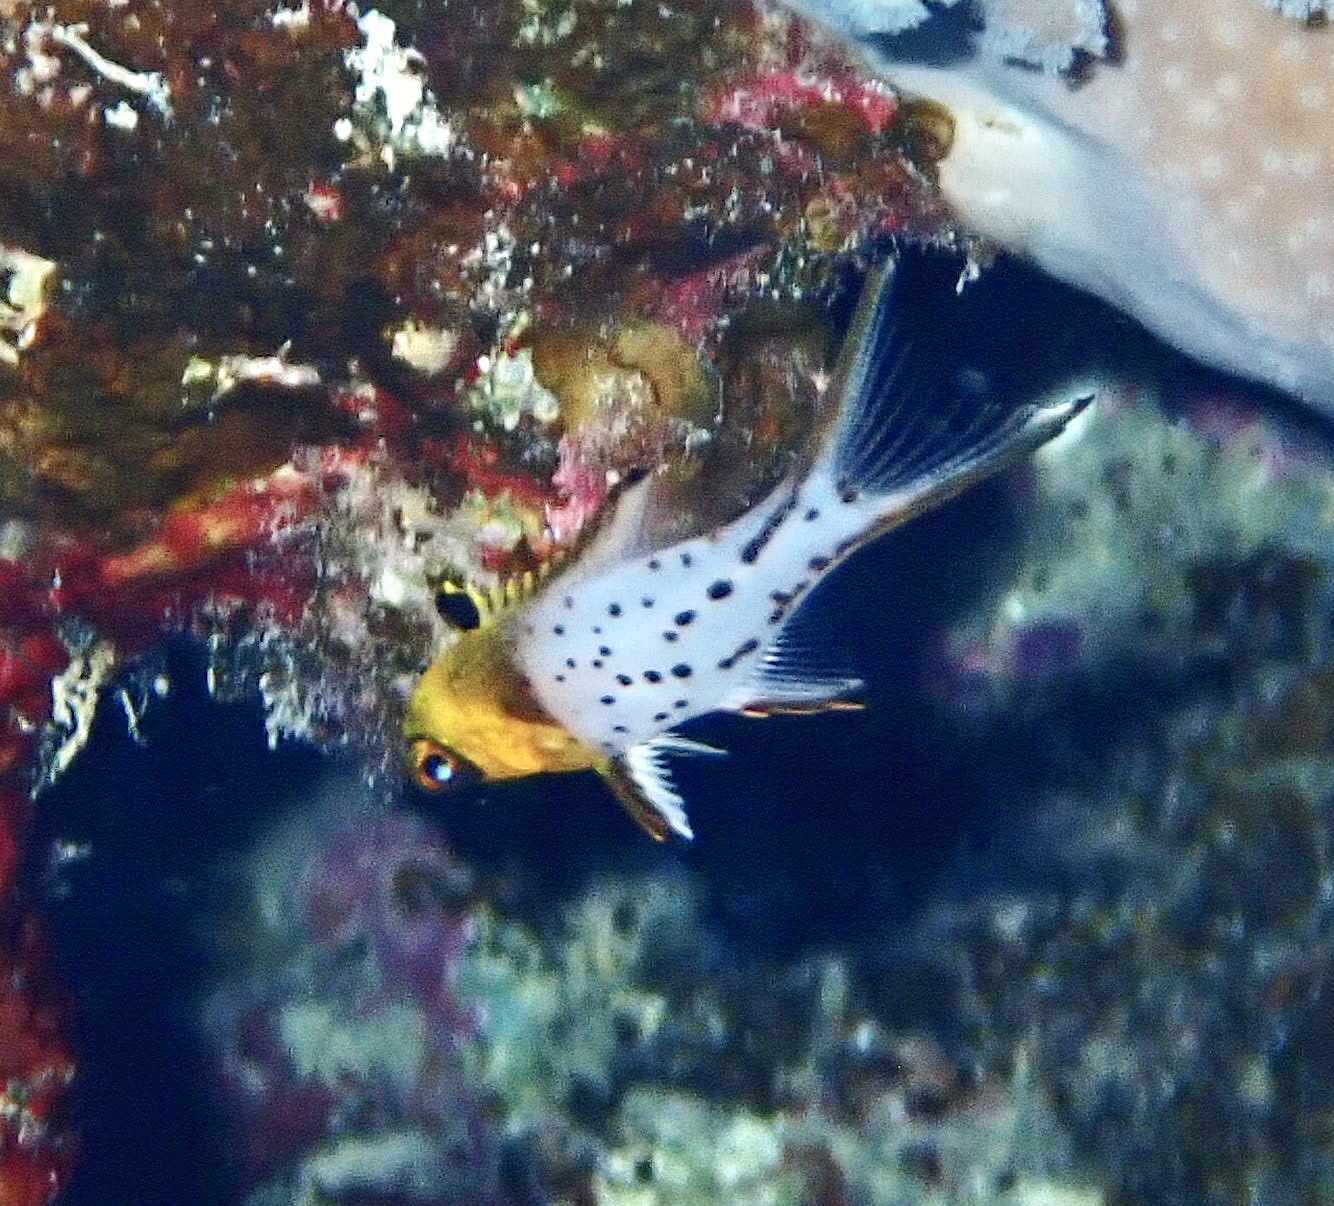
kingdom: Animalia
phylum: Chordata
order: Perciformes
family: Labridae
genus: Bodianus
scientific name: Bodianus anthioides
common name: Lyretail hogfish
